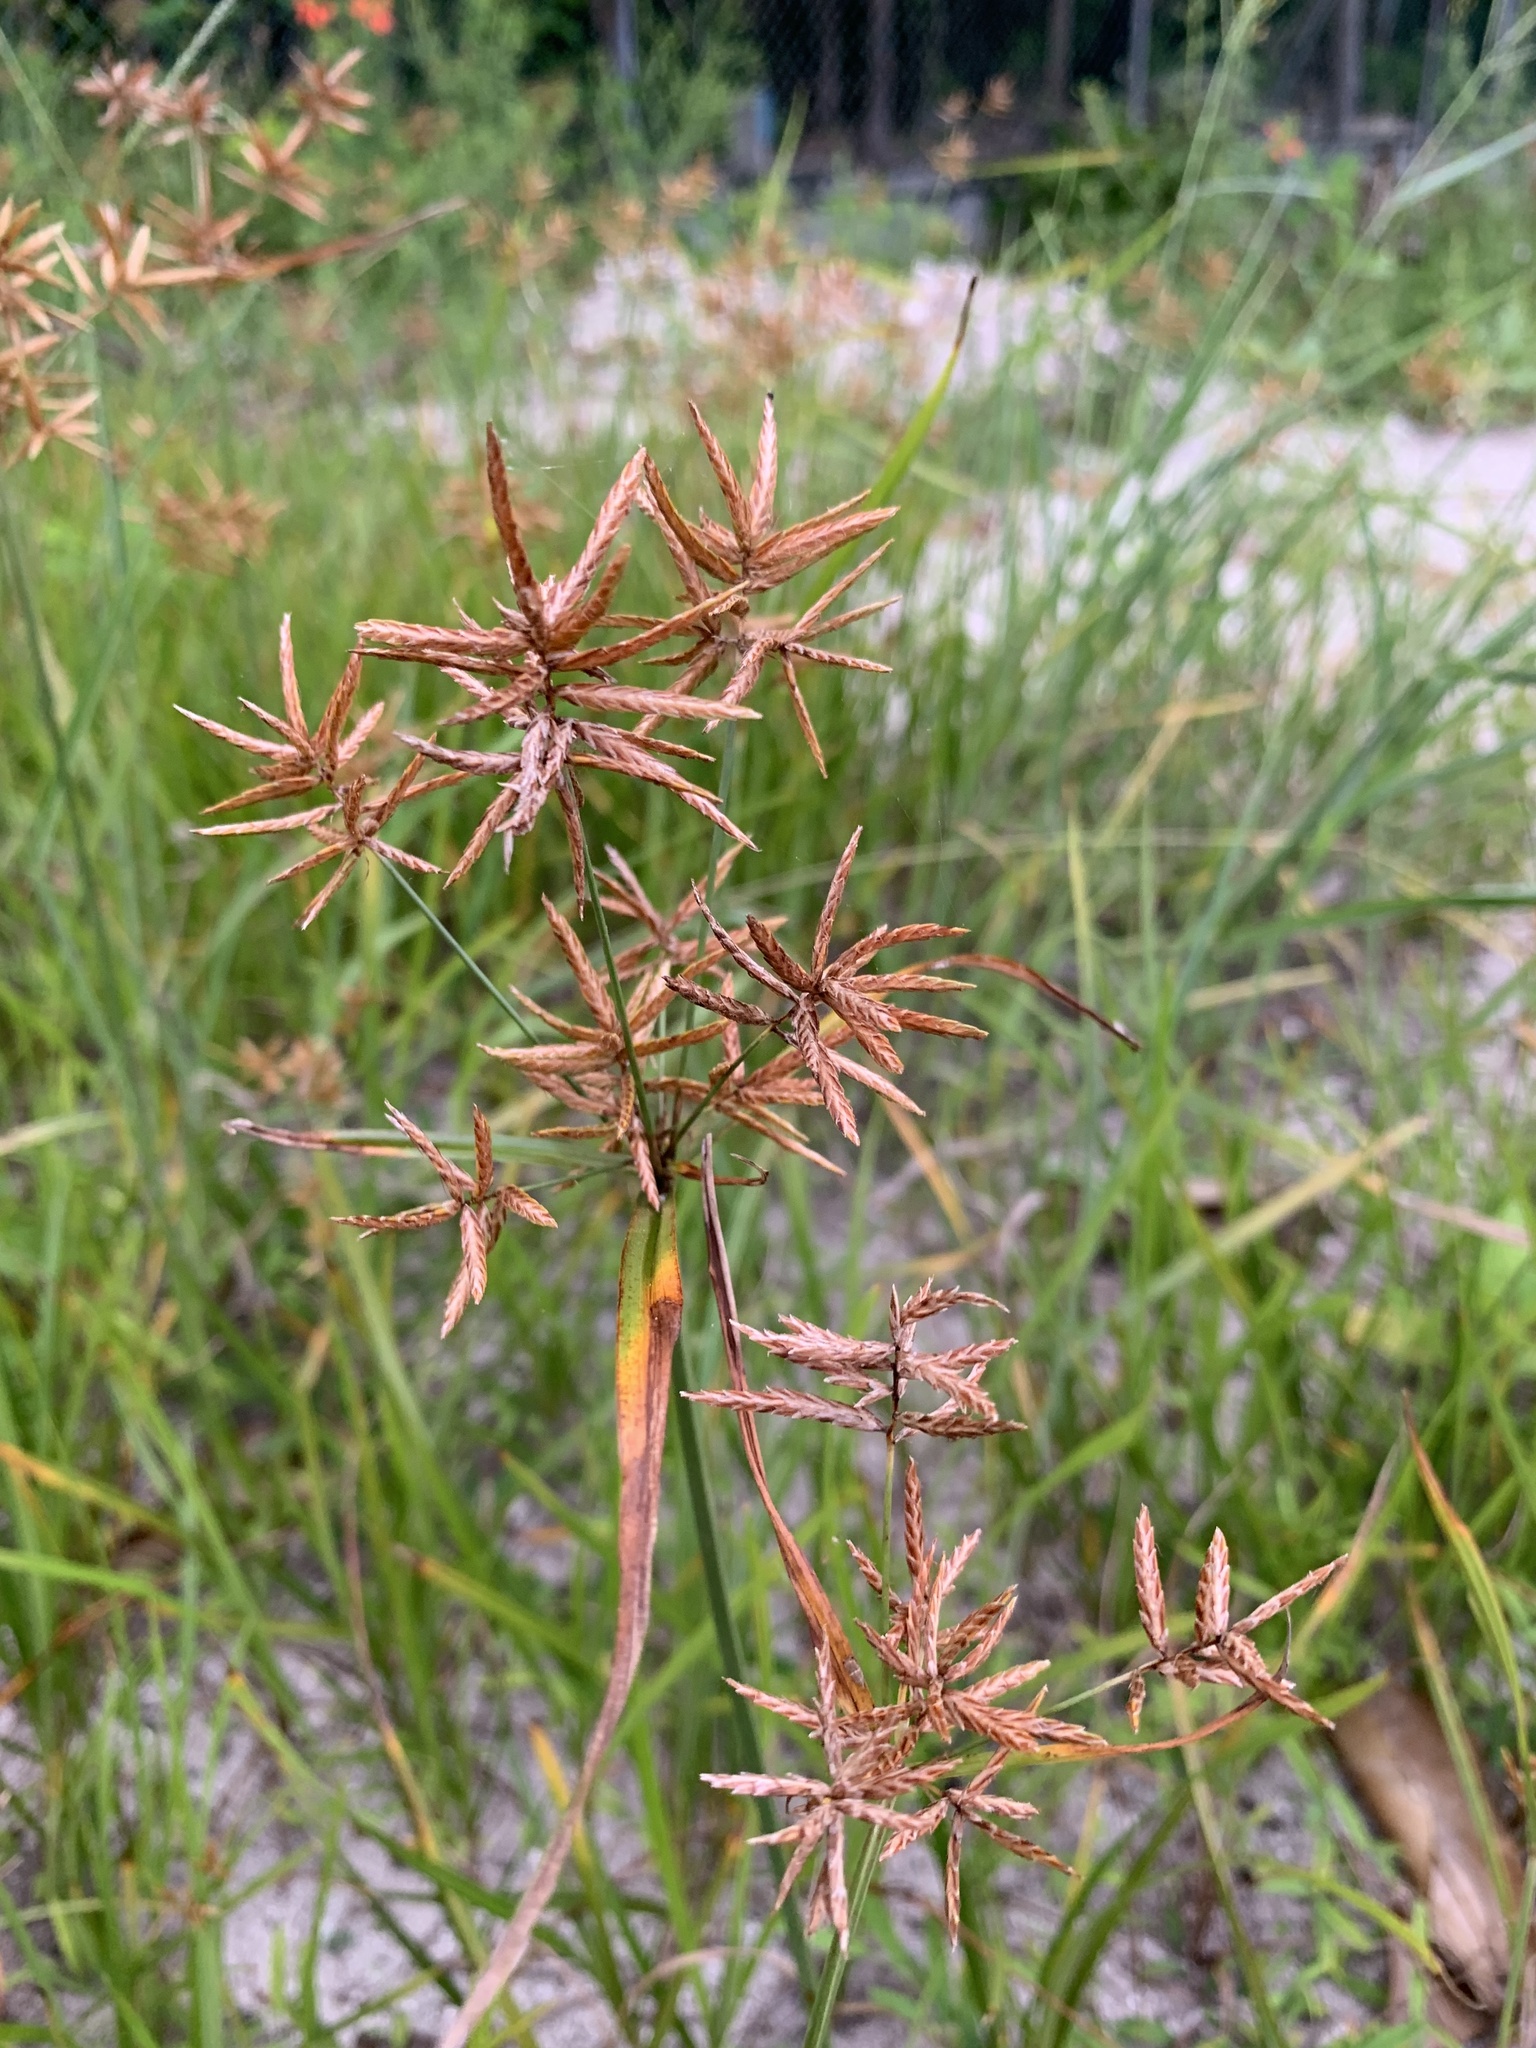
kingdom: Plantae
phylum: Tracheophyta
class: Liliopsida
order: Poales
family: Cyperaceae
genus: Cyperus
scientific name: Cyperus esculentus
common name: Yellow nutsedge
